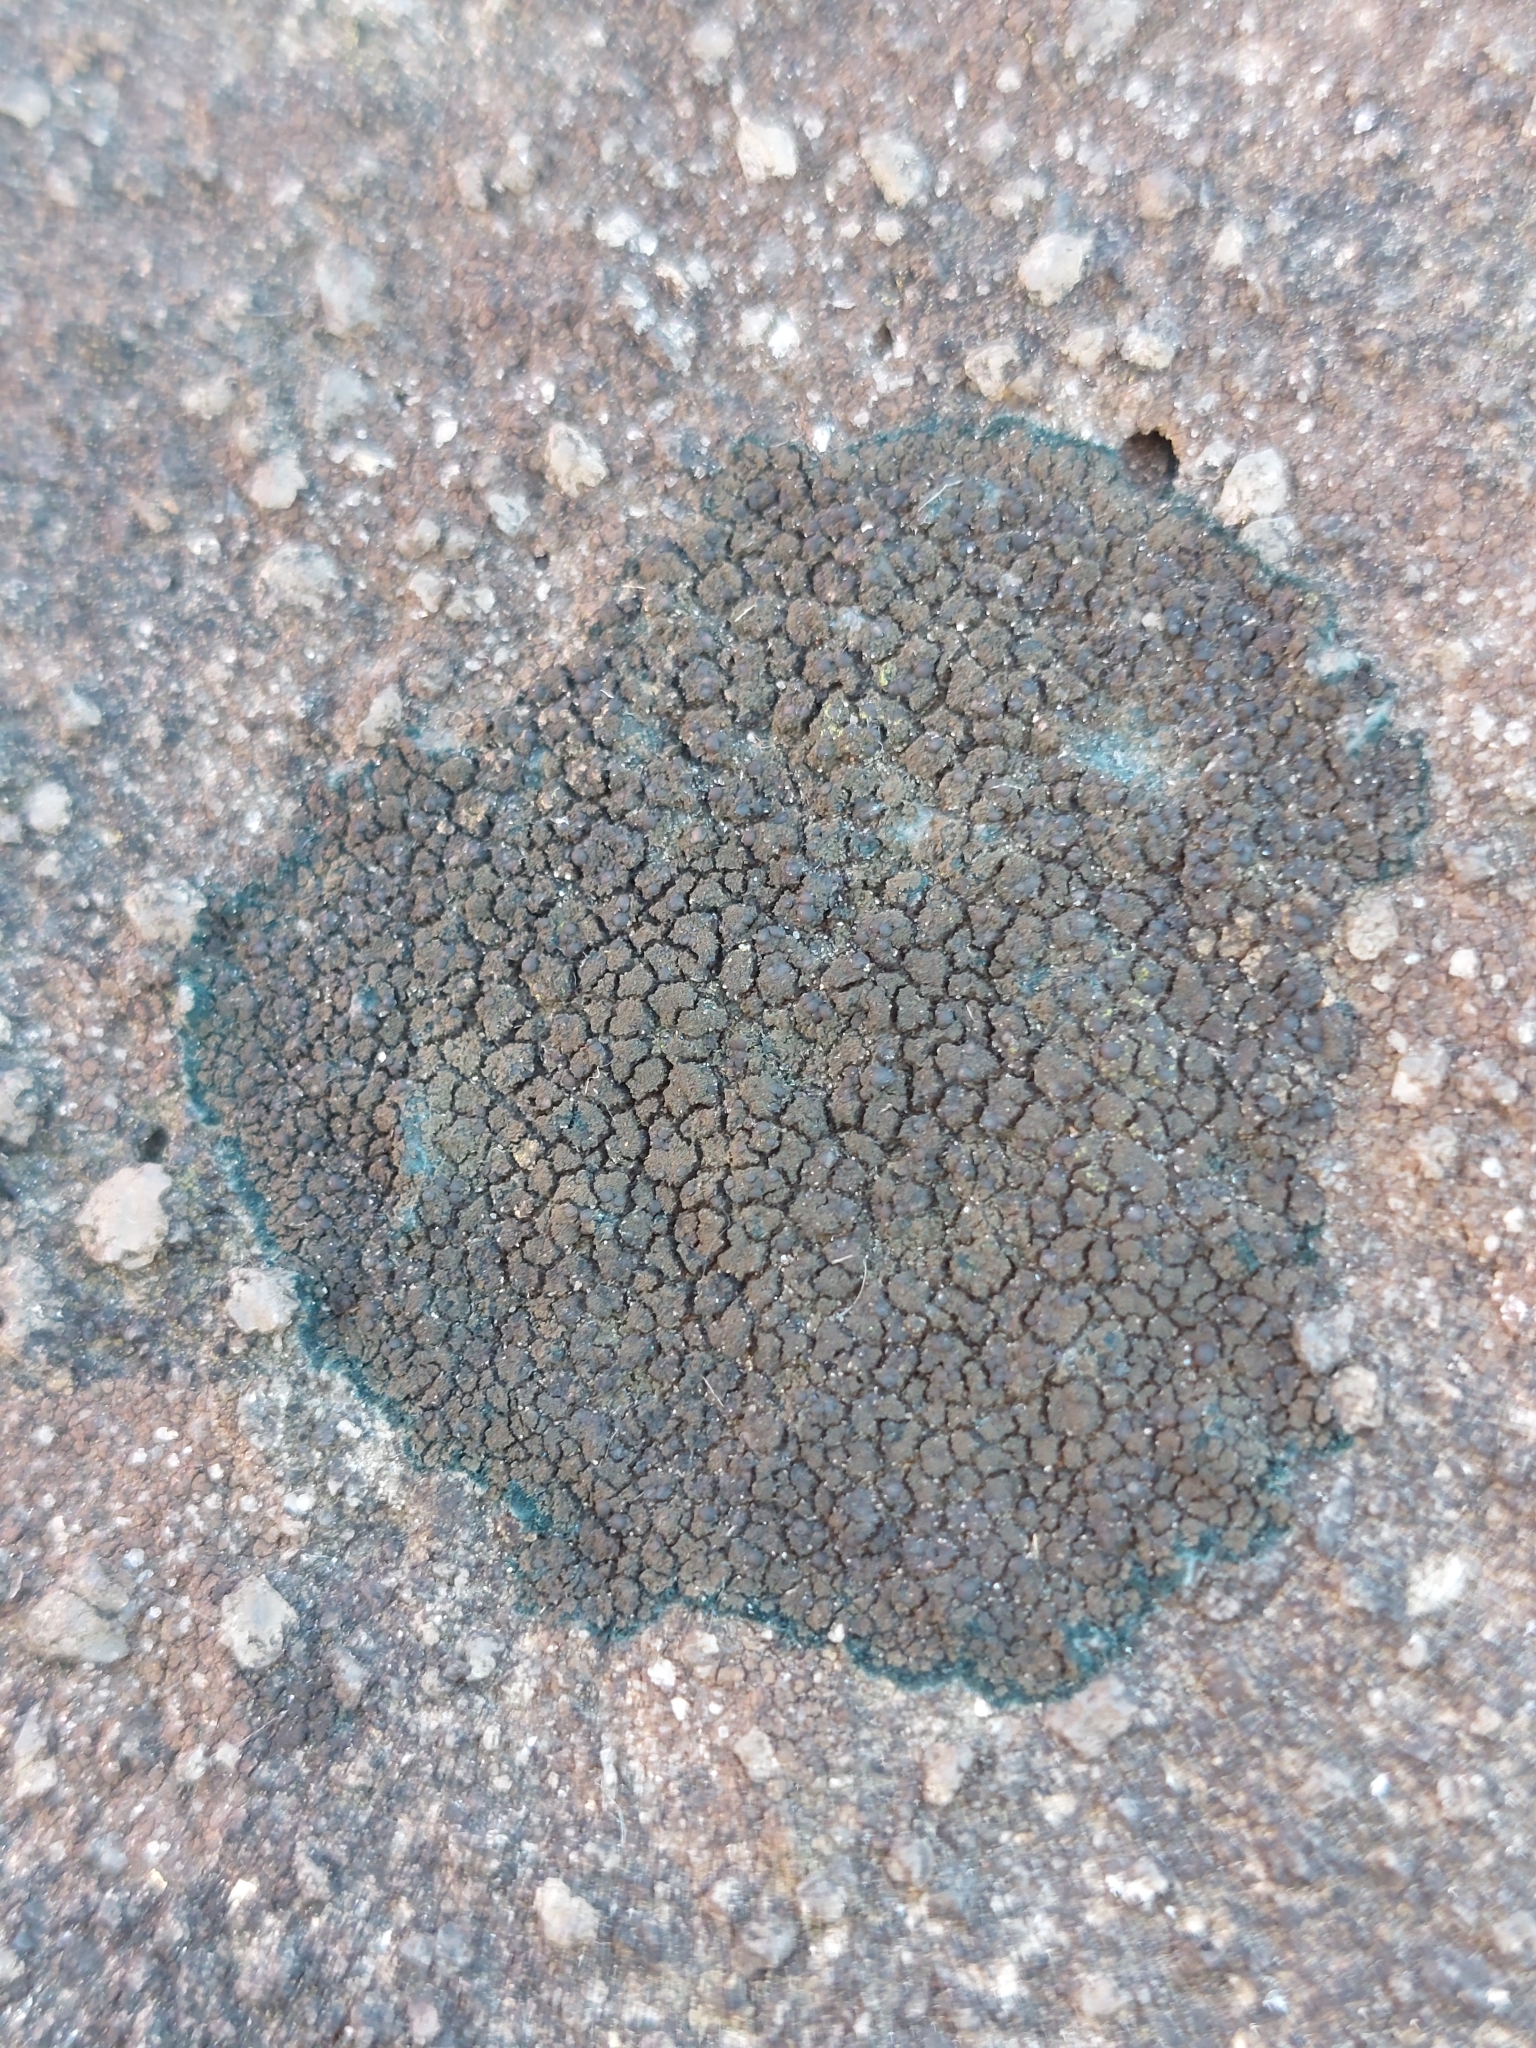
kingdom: Fungi
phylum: Ascomycota
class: Lecanoromycetes
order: Peltigerales
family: Placynthiaceae
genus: Placynthium
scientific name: Placynthium nigrum
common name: Blackthread lichen
